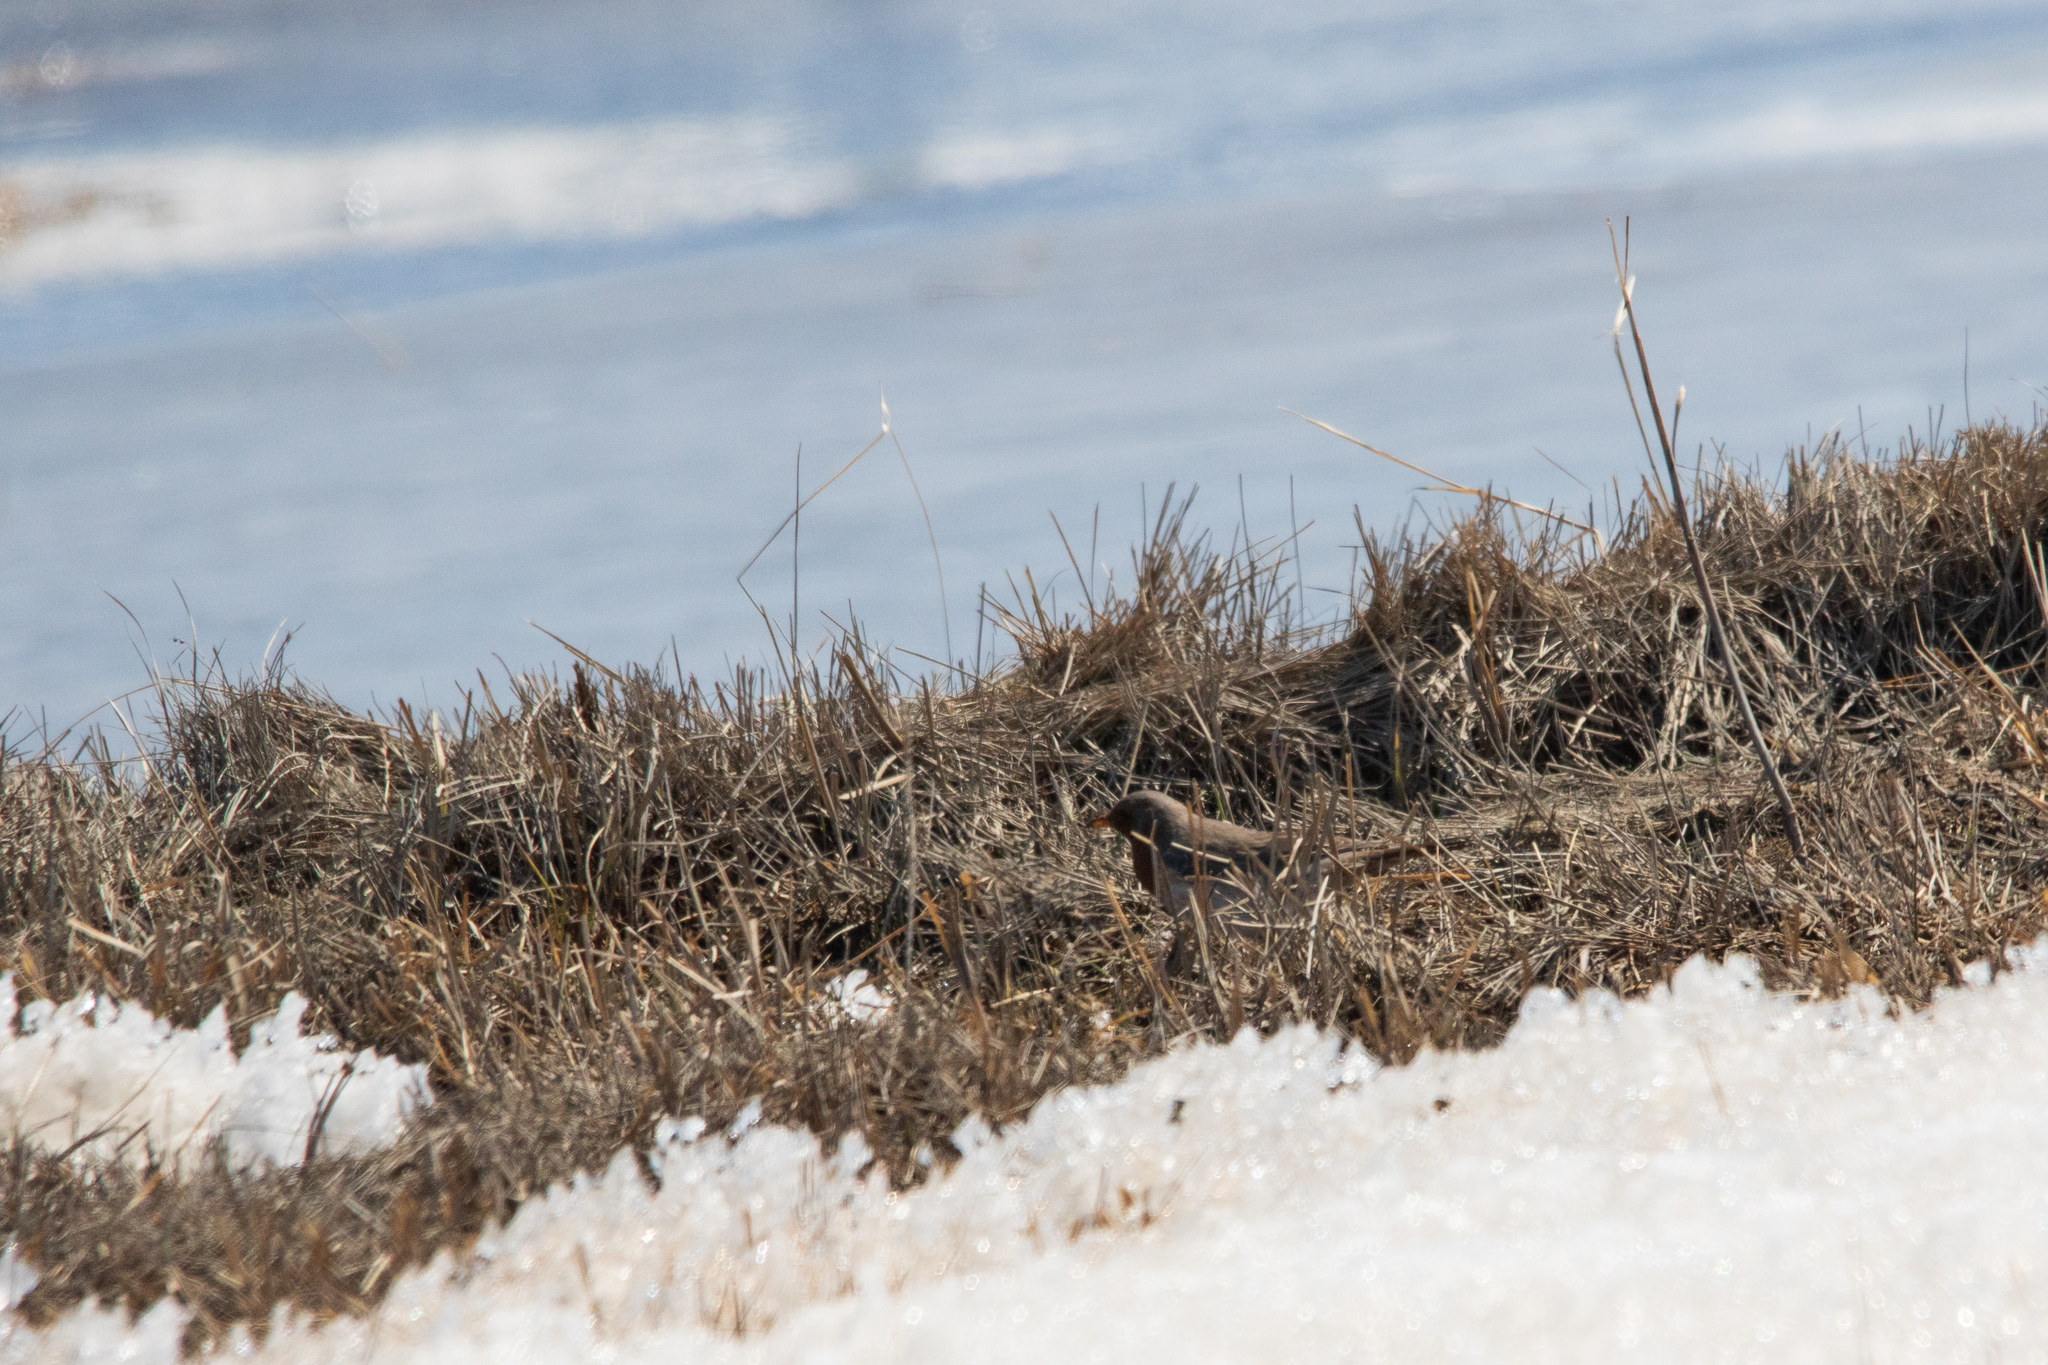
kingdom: Animalia
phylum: Chordata
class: Aves
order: Passeriformes
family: Turdidae
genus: Turdus
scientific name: Turdus ruficollis
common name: Red-throated thrush
